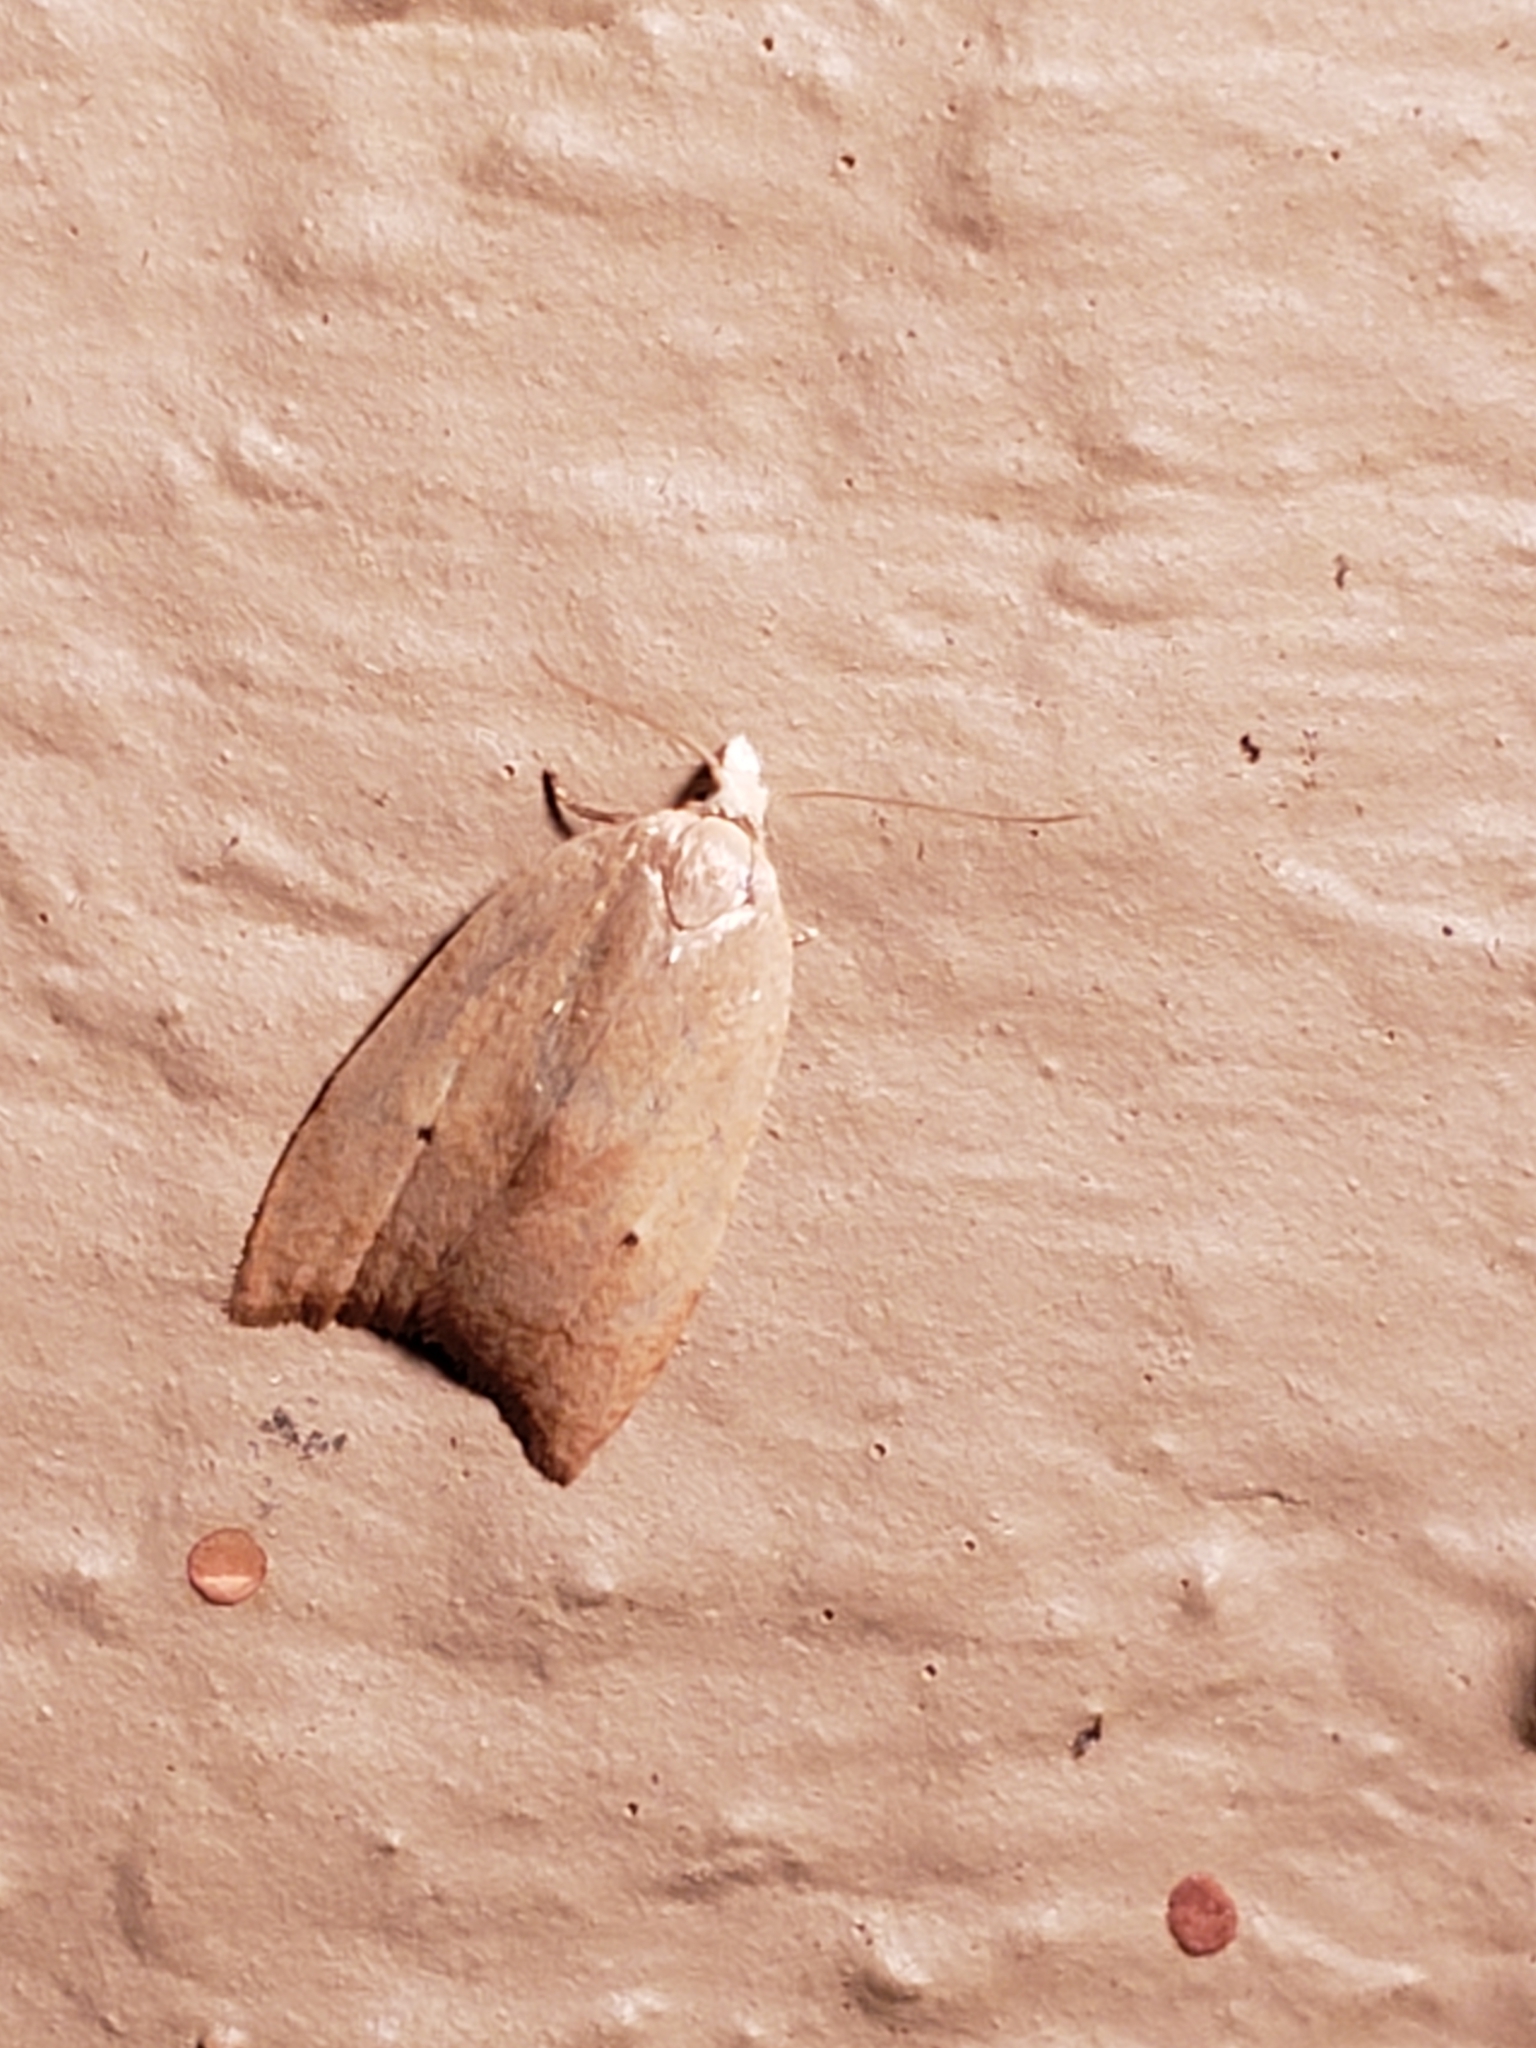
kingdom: Animalia
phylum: Arthropoda
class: Insecta
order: Lepidoptera
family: Tortricidae
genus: Coelostathma
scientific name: Coelostathma discopunctana
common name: Batman moth
